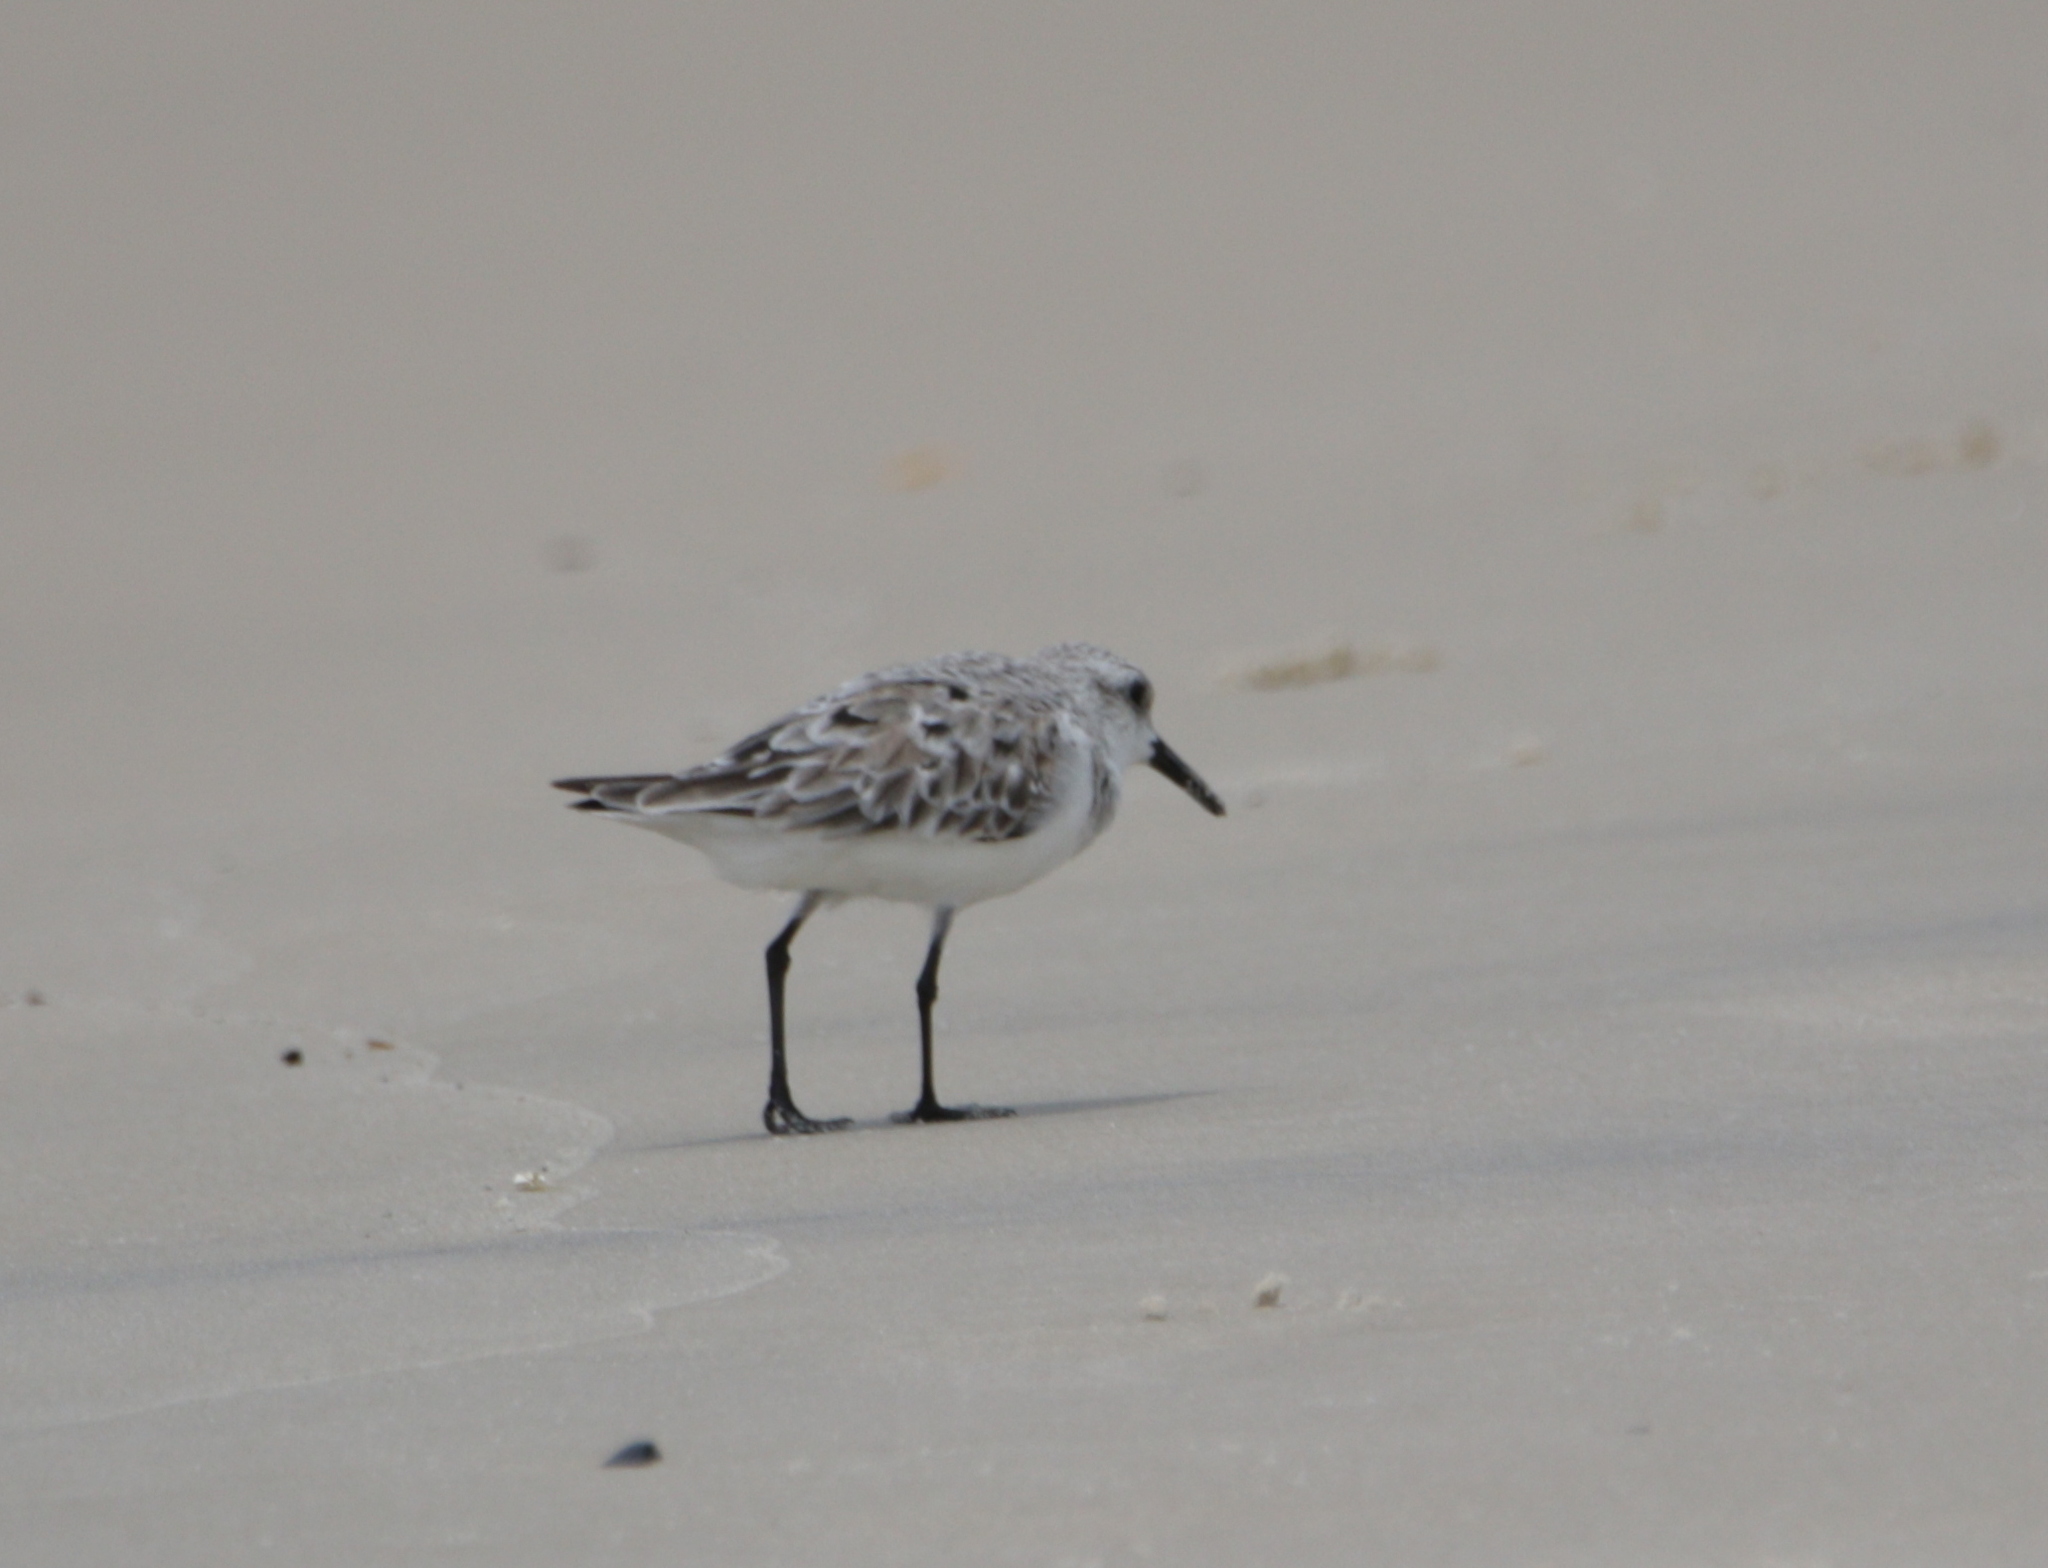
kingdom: Animalia
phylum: Chordata
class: Aves
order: Charadriiformes
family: Scolopacidae
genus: Calidris
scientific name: Calidris alba
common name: Sanderling
